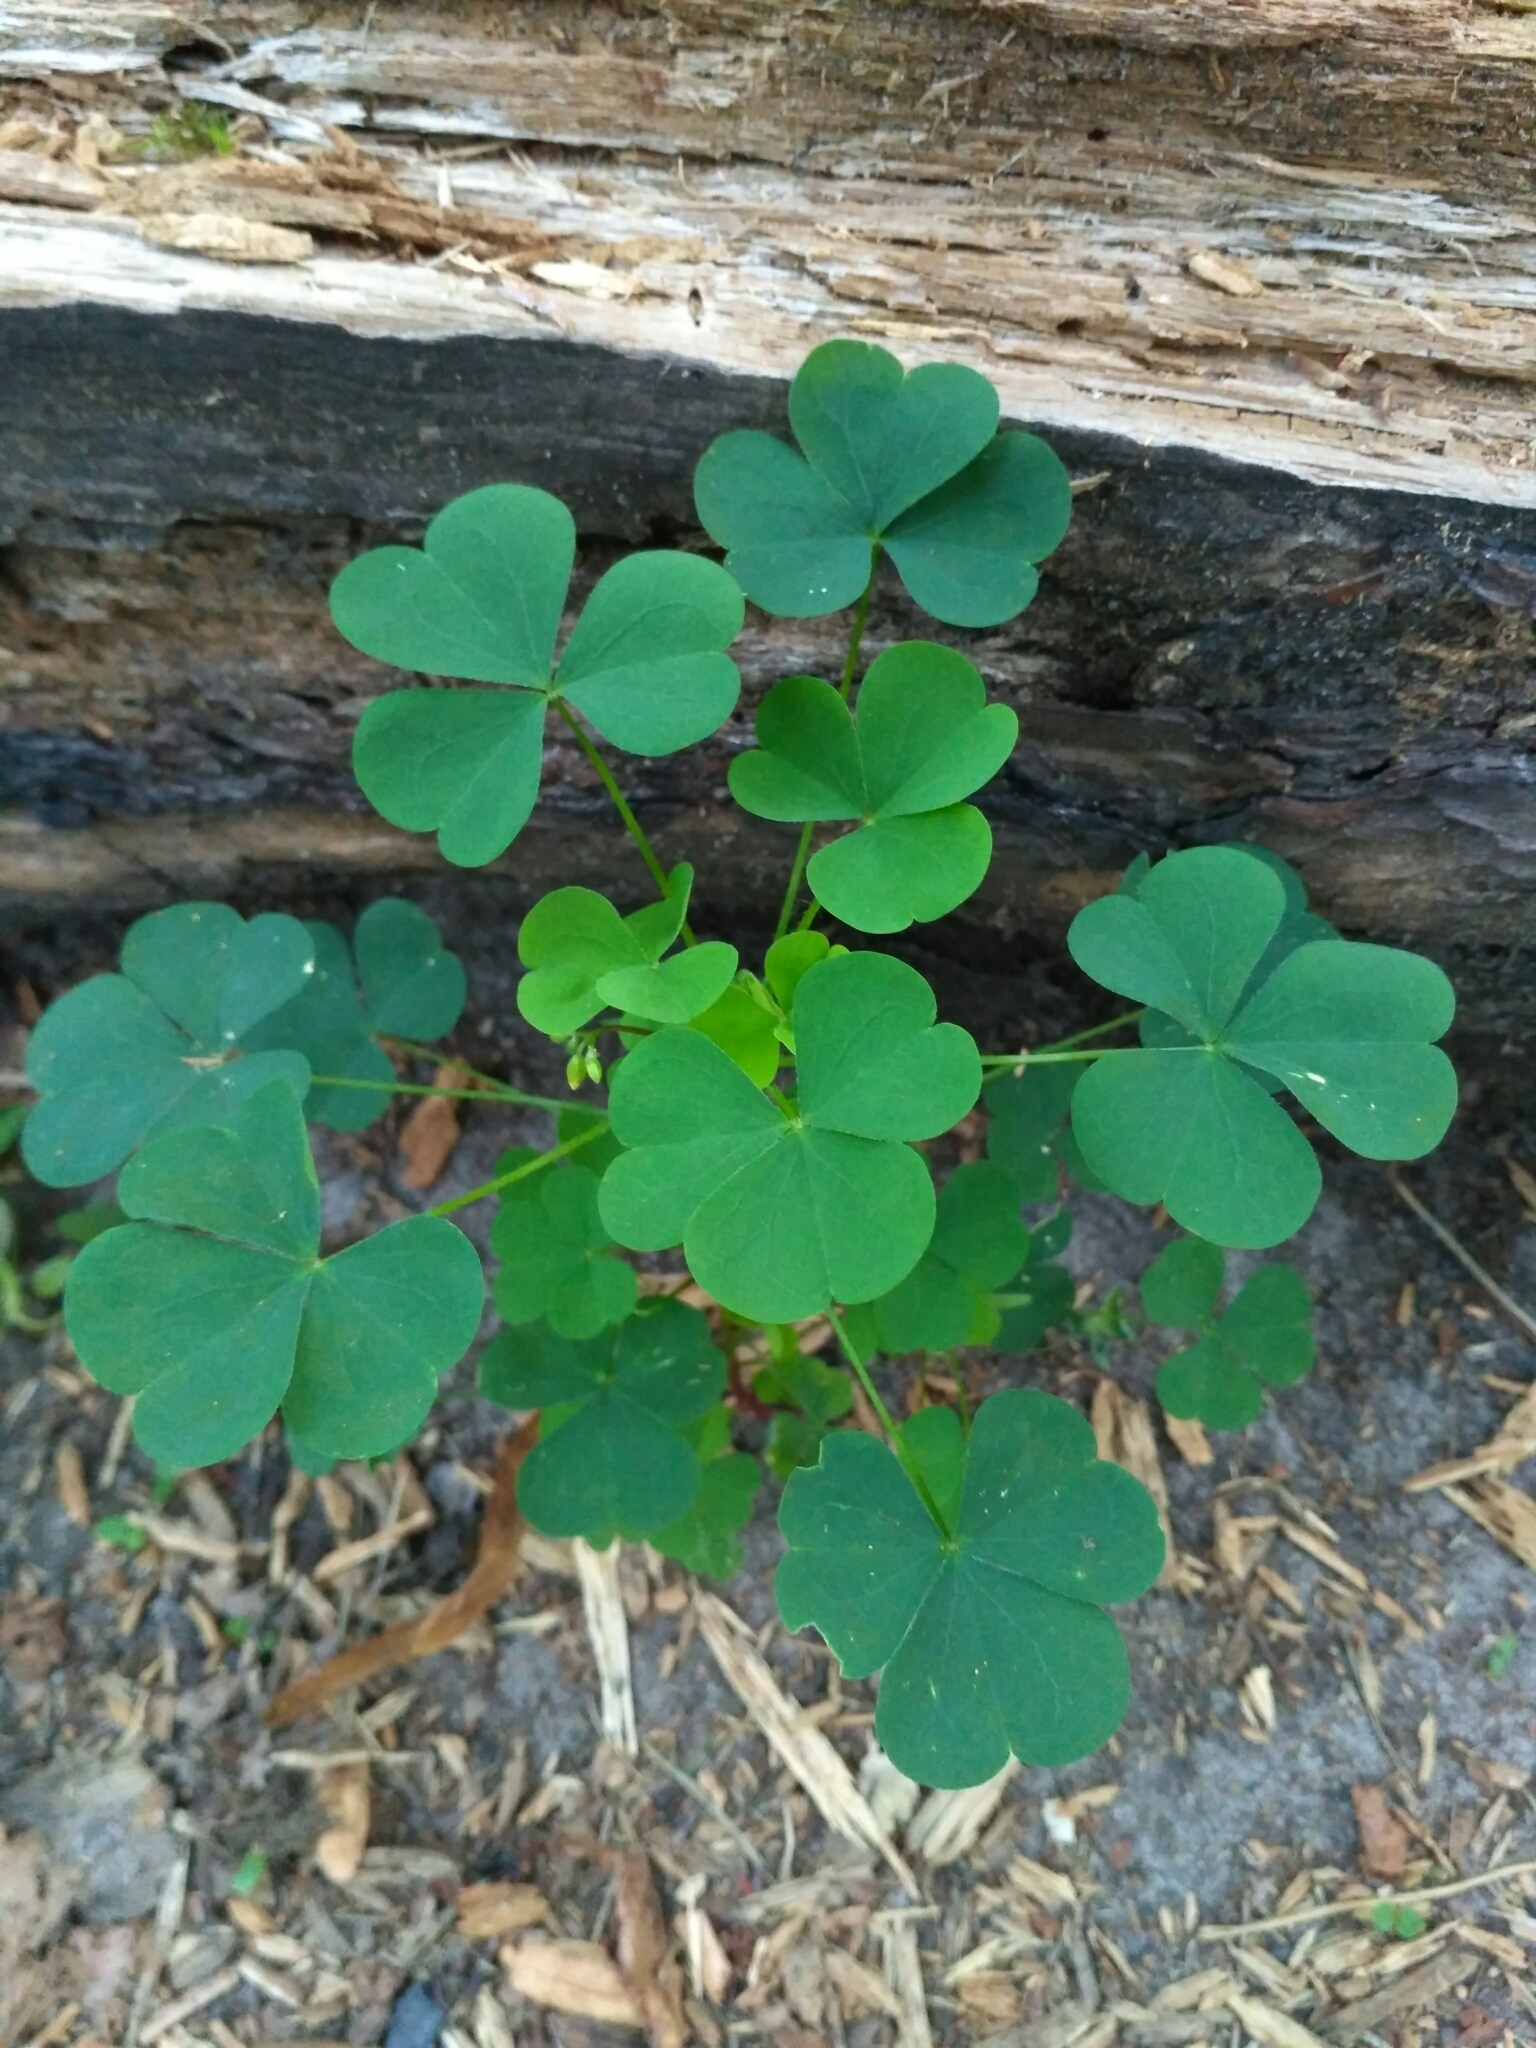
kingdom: Plantae
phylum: Tracheophyta
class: Magnoliopsida
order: Oxalidales
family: Oxalidaceae
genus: Oxalis
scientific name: Oxalis stricta
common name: Upright yellow-sorrel
